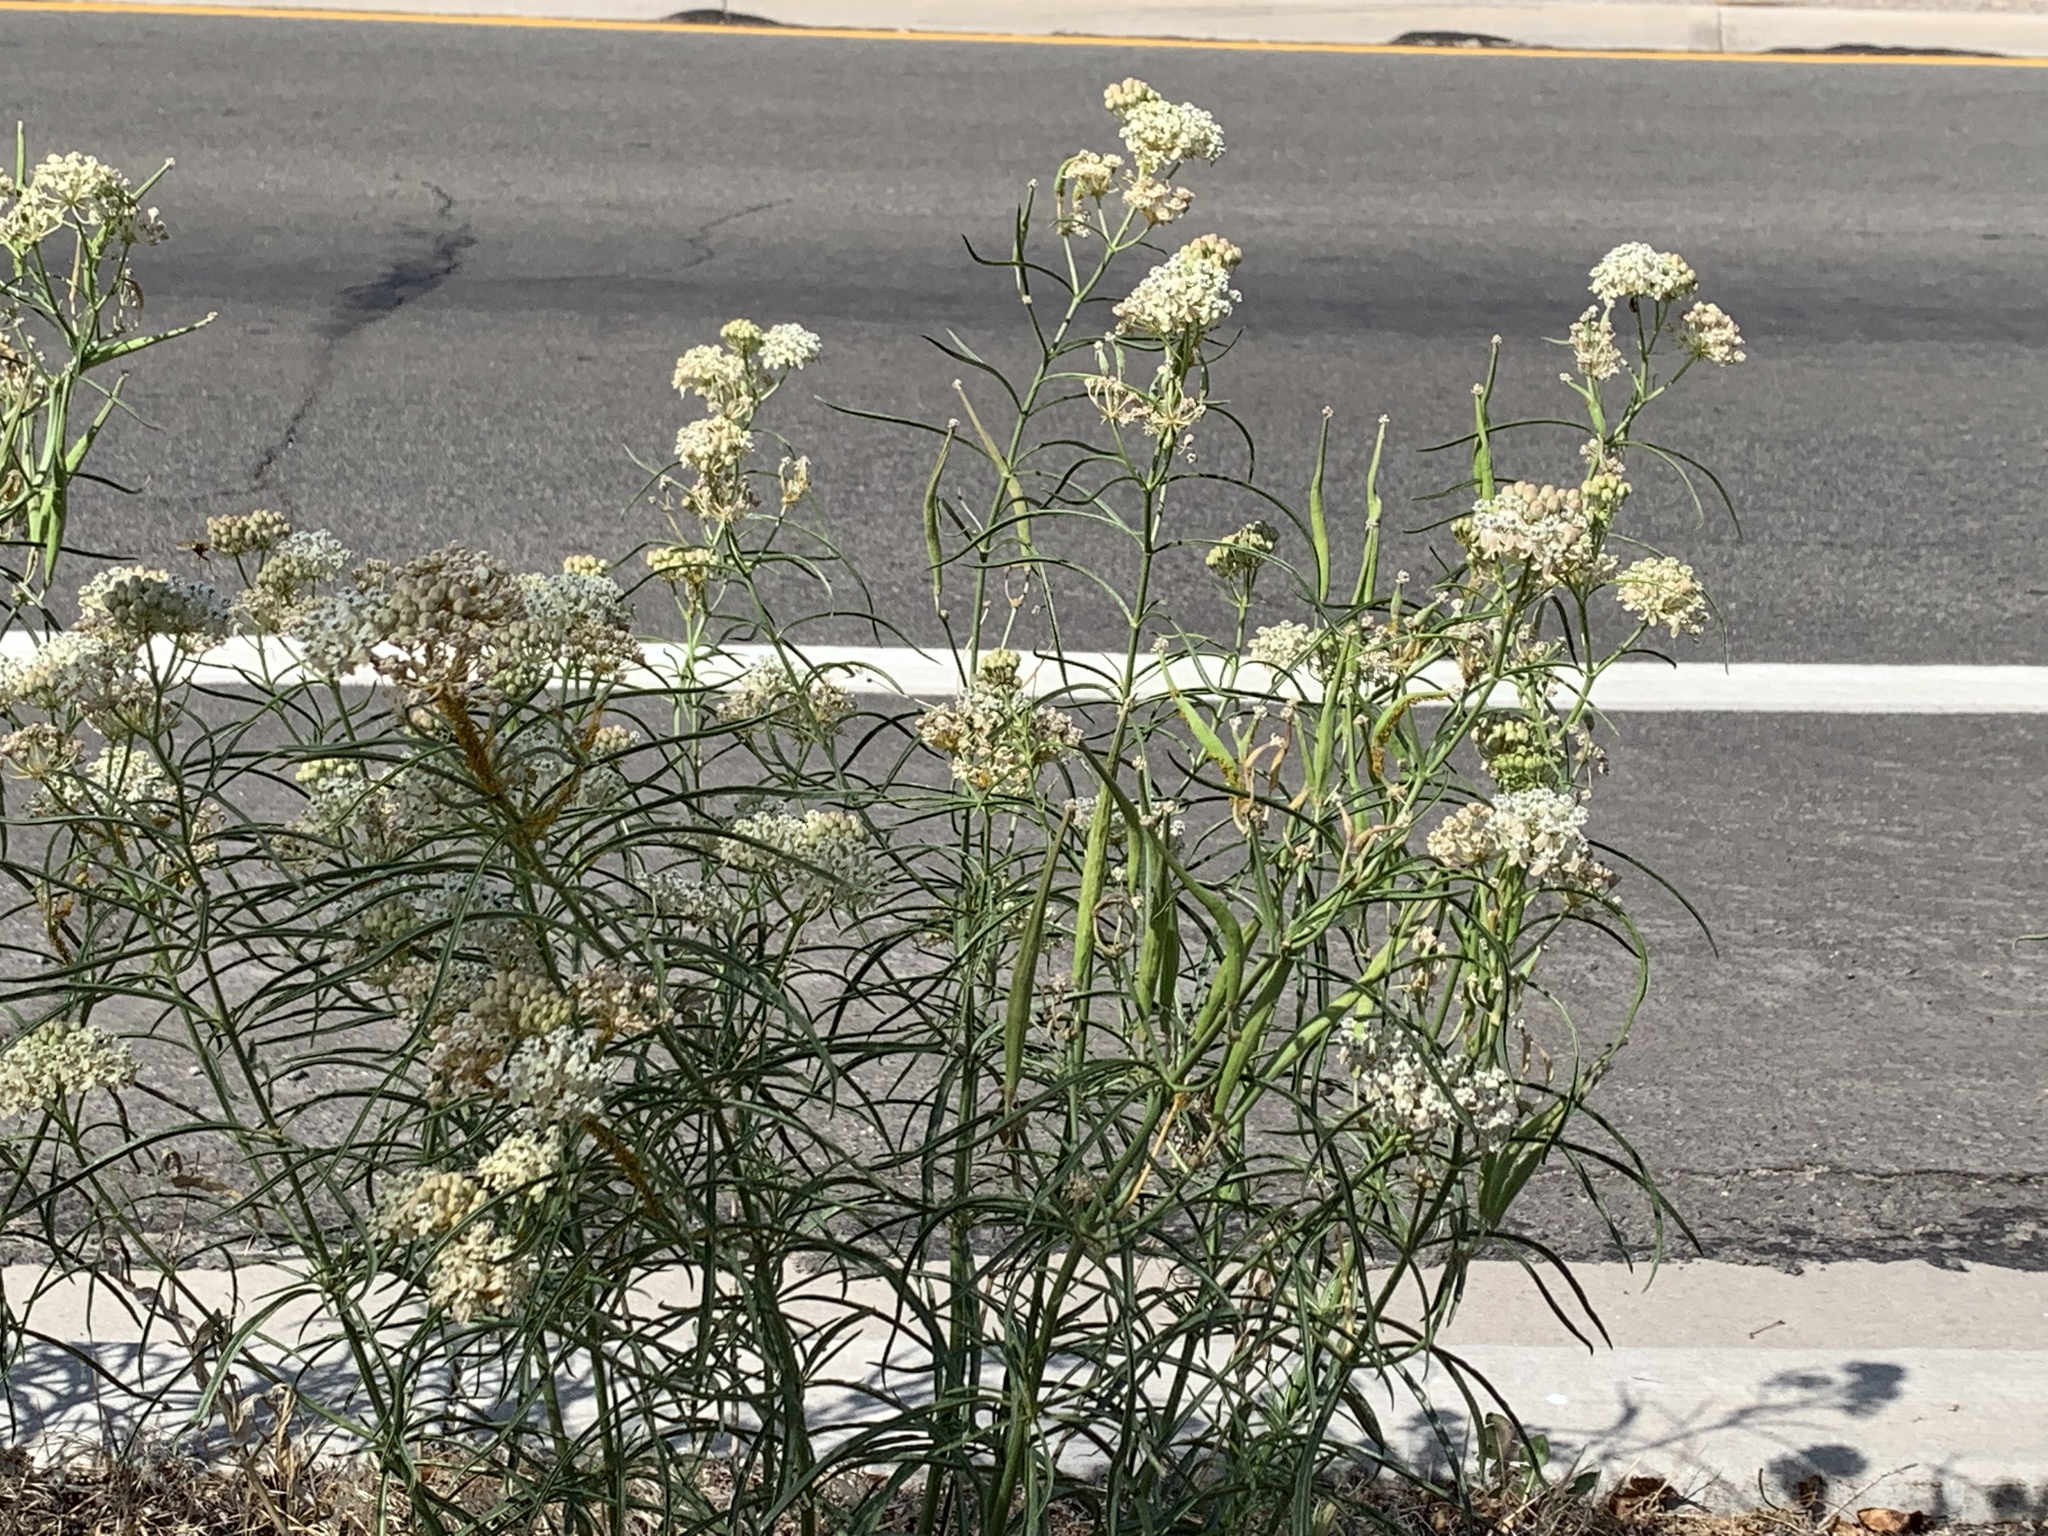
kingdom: Plantae
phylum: Tracheophyta
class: Magnoliopsida
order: Gentianales
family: Apocynaceae
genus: Asclepias
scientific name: Asclepias fascicularis
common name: Mexican milkweed
